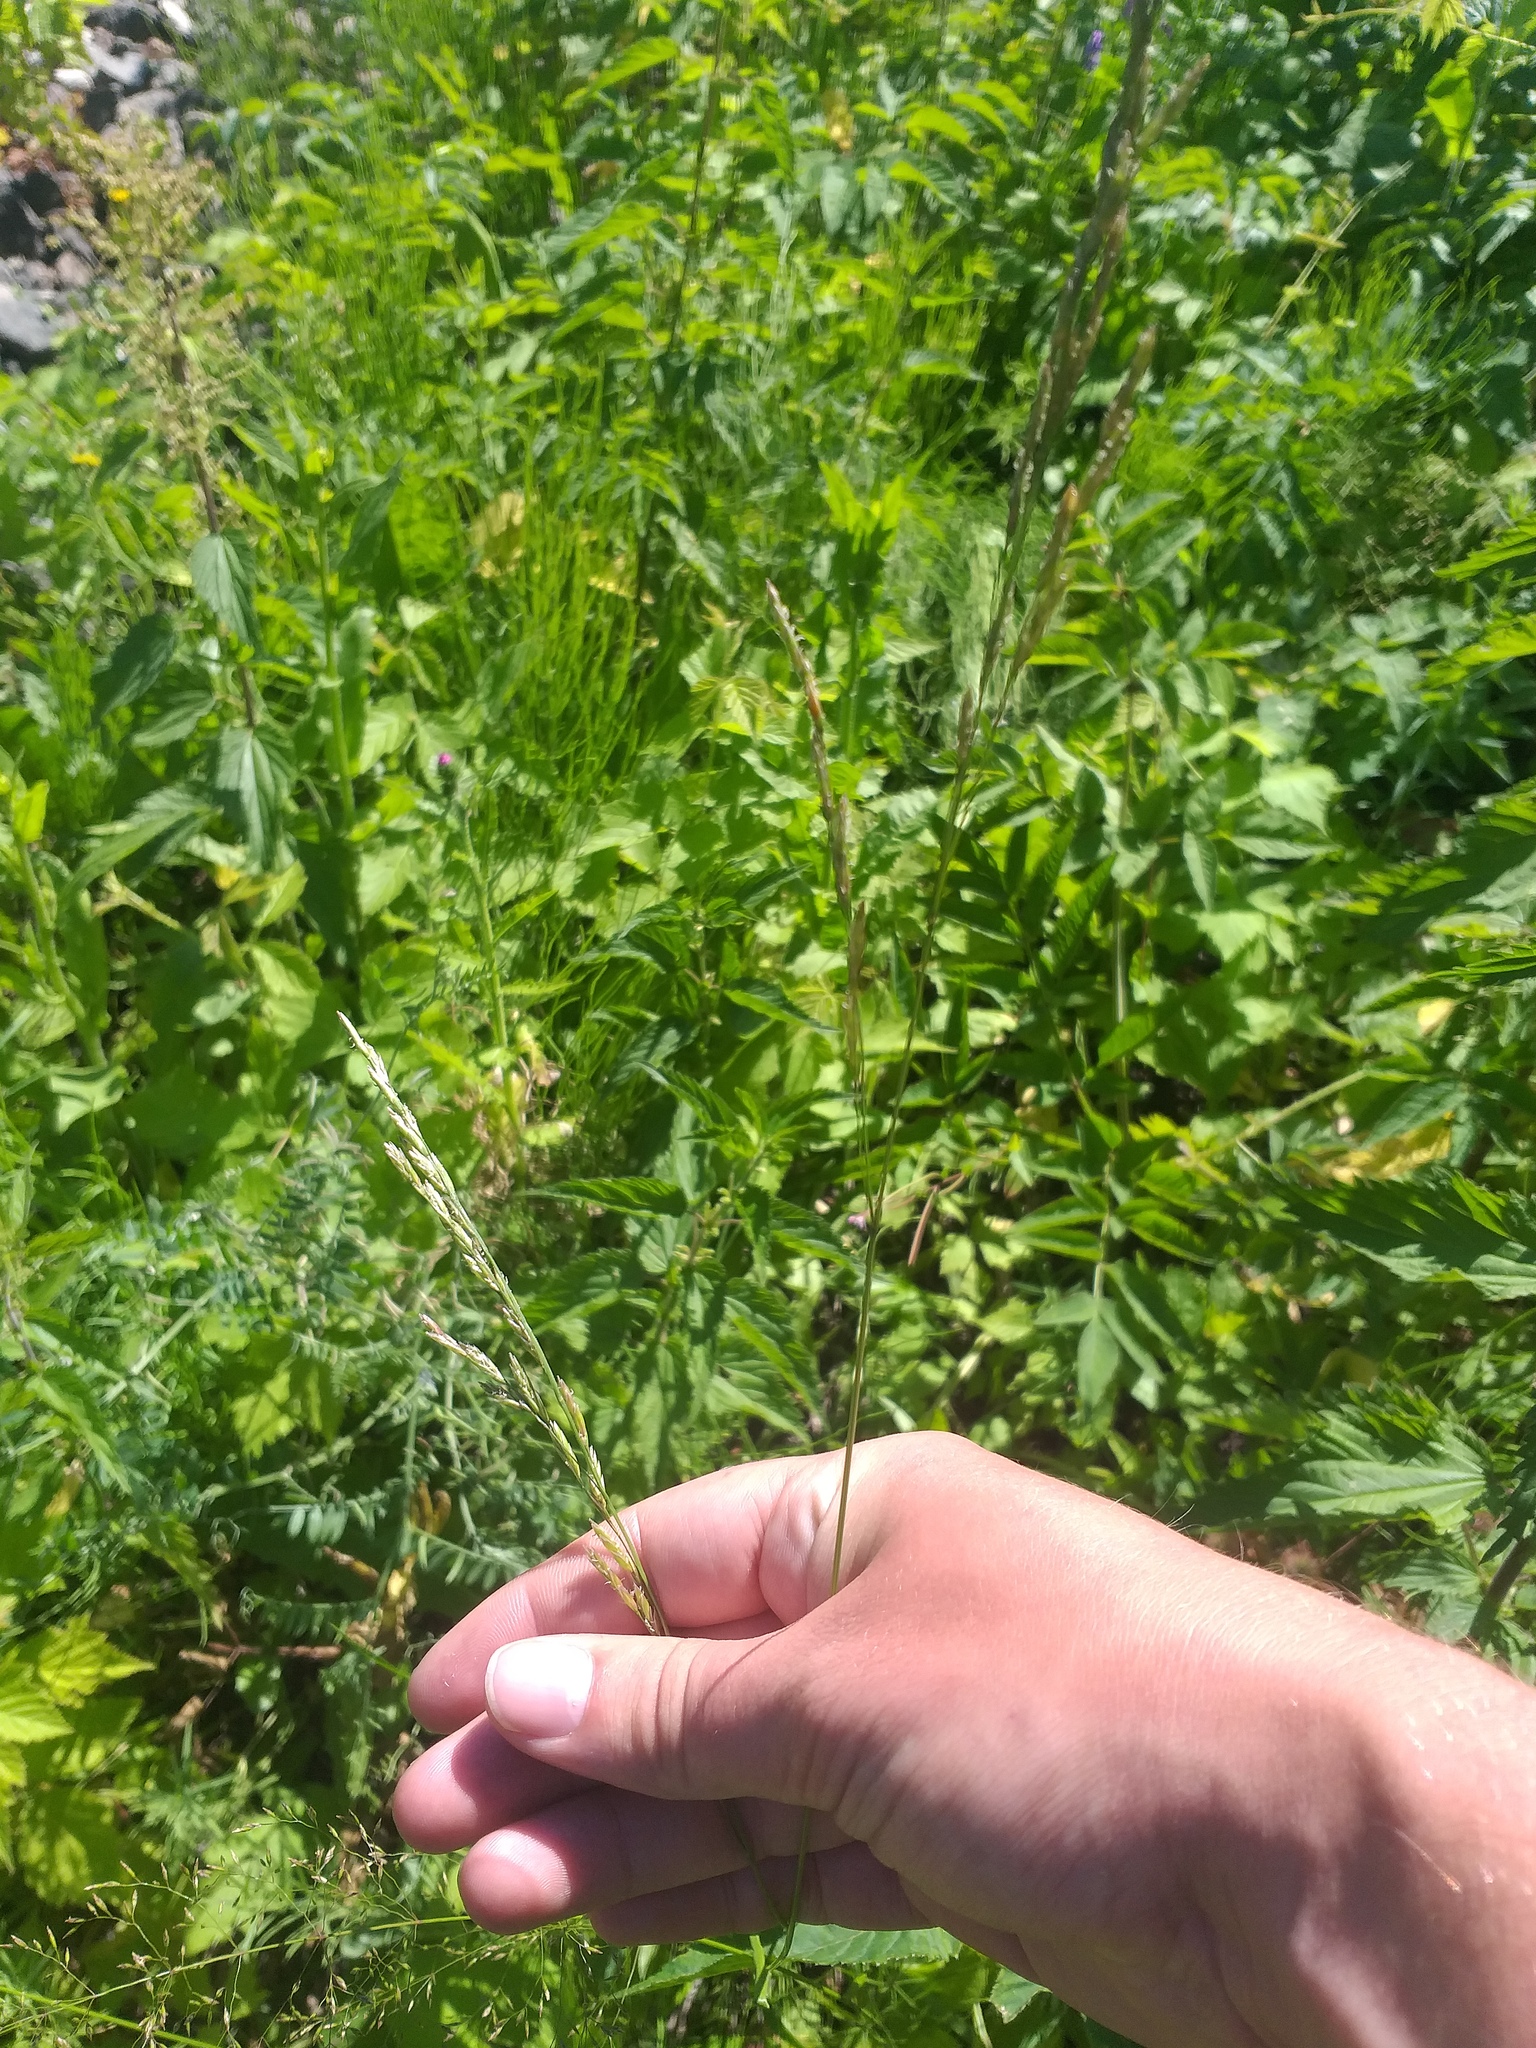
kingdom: Plantae
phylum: Tracheophyta
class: Liliopsida
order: Poales
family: Poaceae
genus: Lolium
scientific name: Lolium pratense
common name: Dover grass
